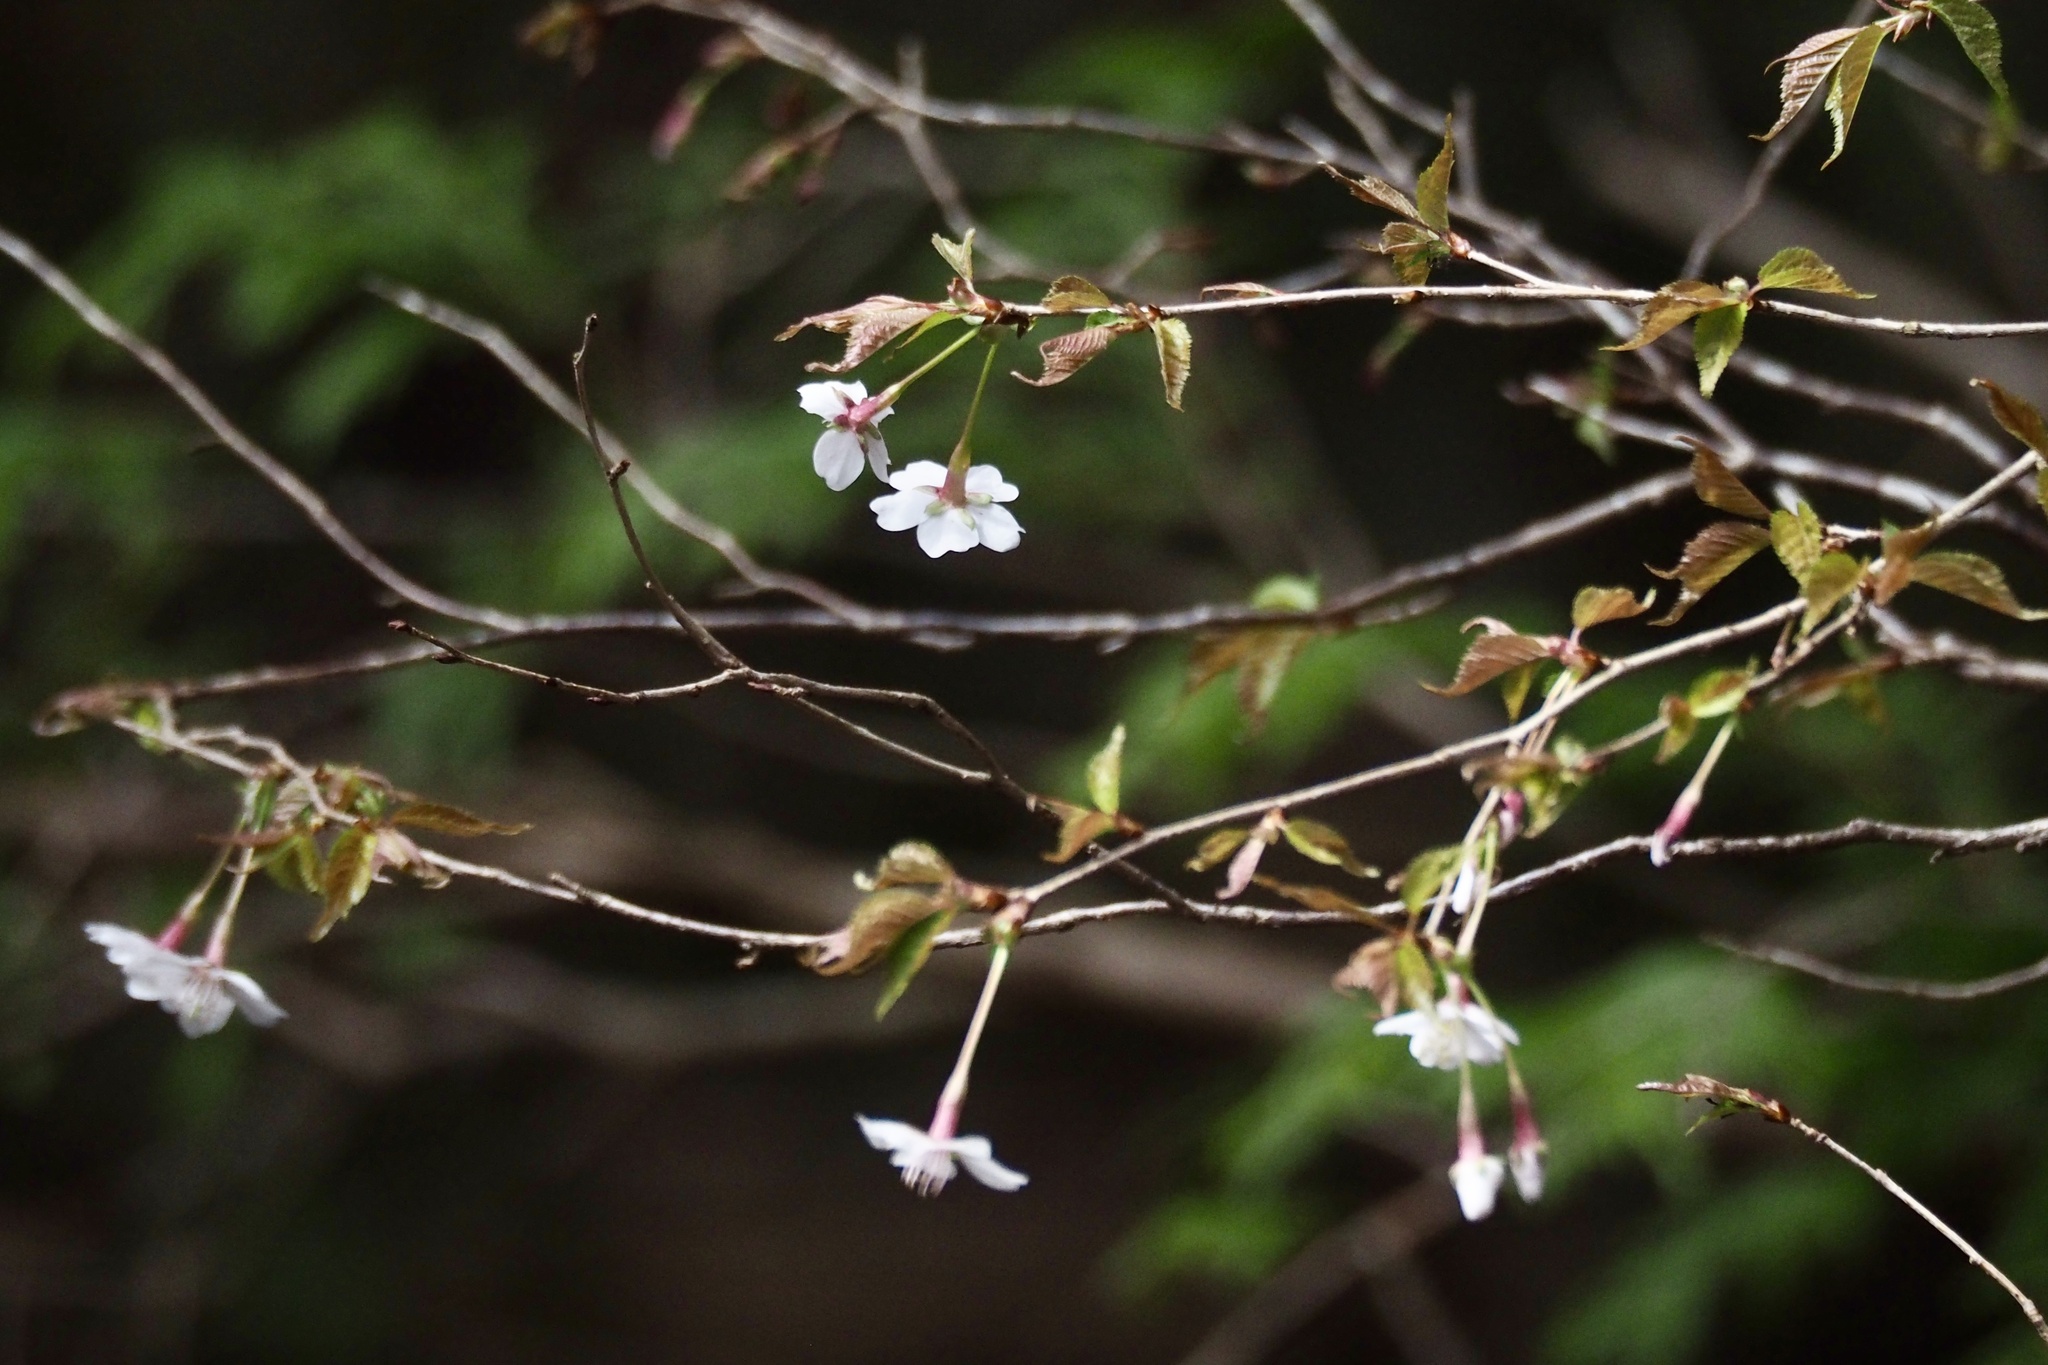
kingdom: Plantae
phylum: Tracheophyta
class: Magnoliopsida
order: Rosales
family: Rosaceae
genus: Prunus
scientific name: Prunus incisa
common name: Fuji cherry
